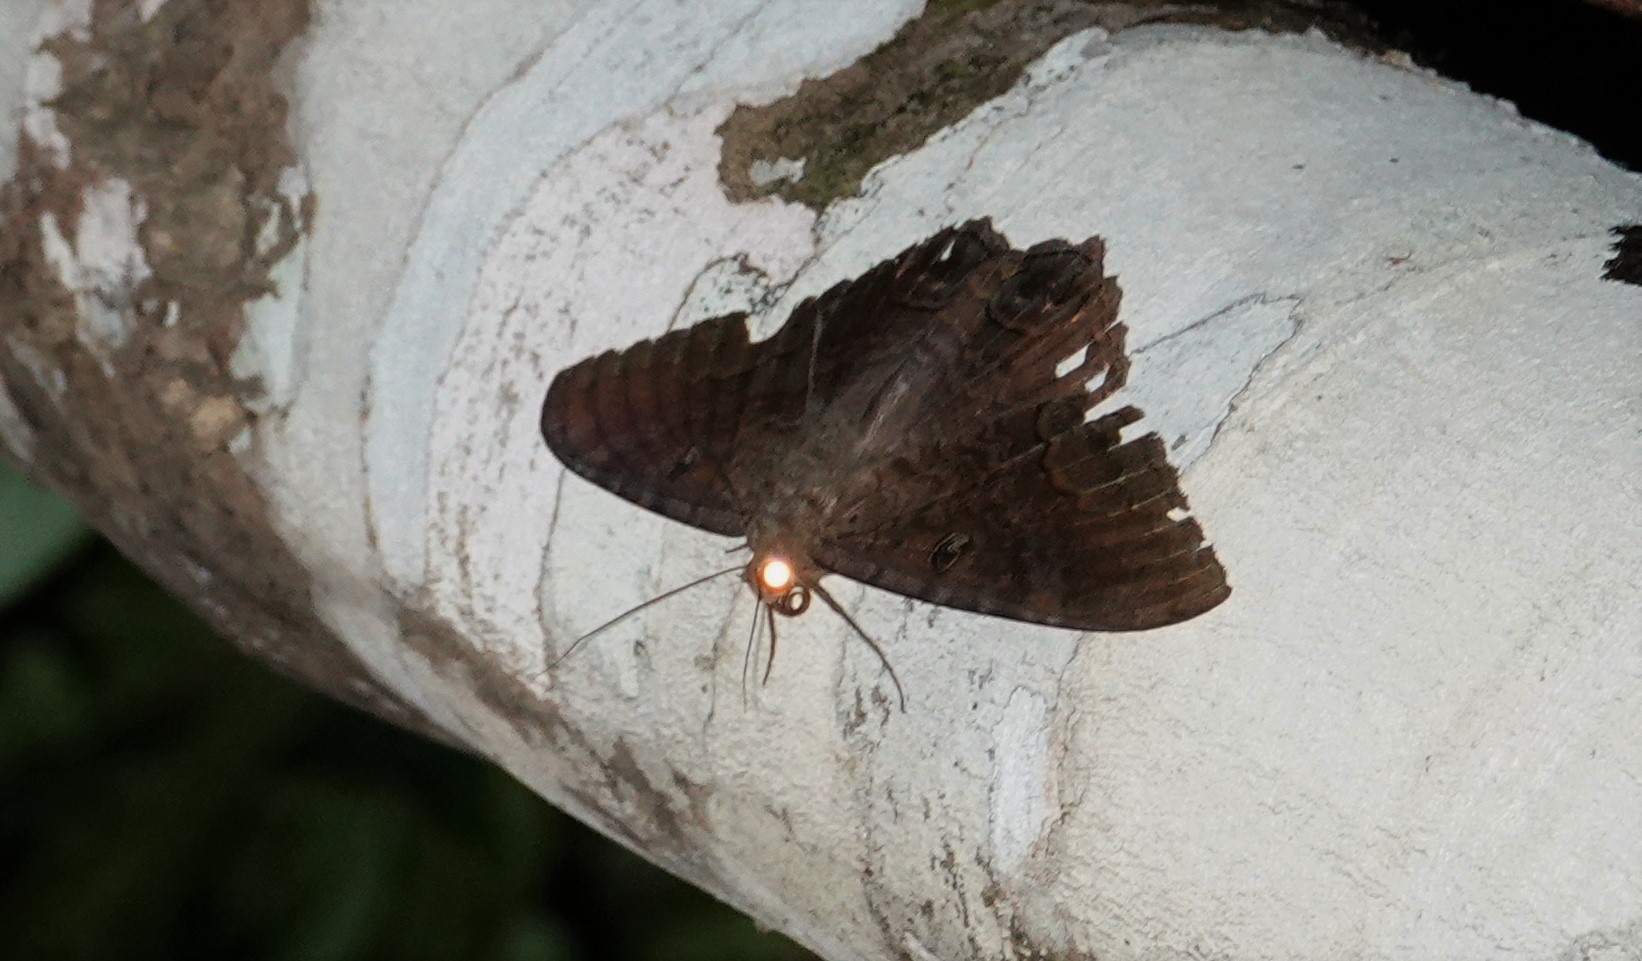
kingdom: Animalia
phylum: Arthropoda
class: Insecta
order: Lepidoptera
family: Erebidae
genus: Ascalapha
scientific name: Ascalapha odorata
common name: Black witch
